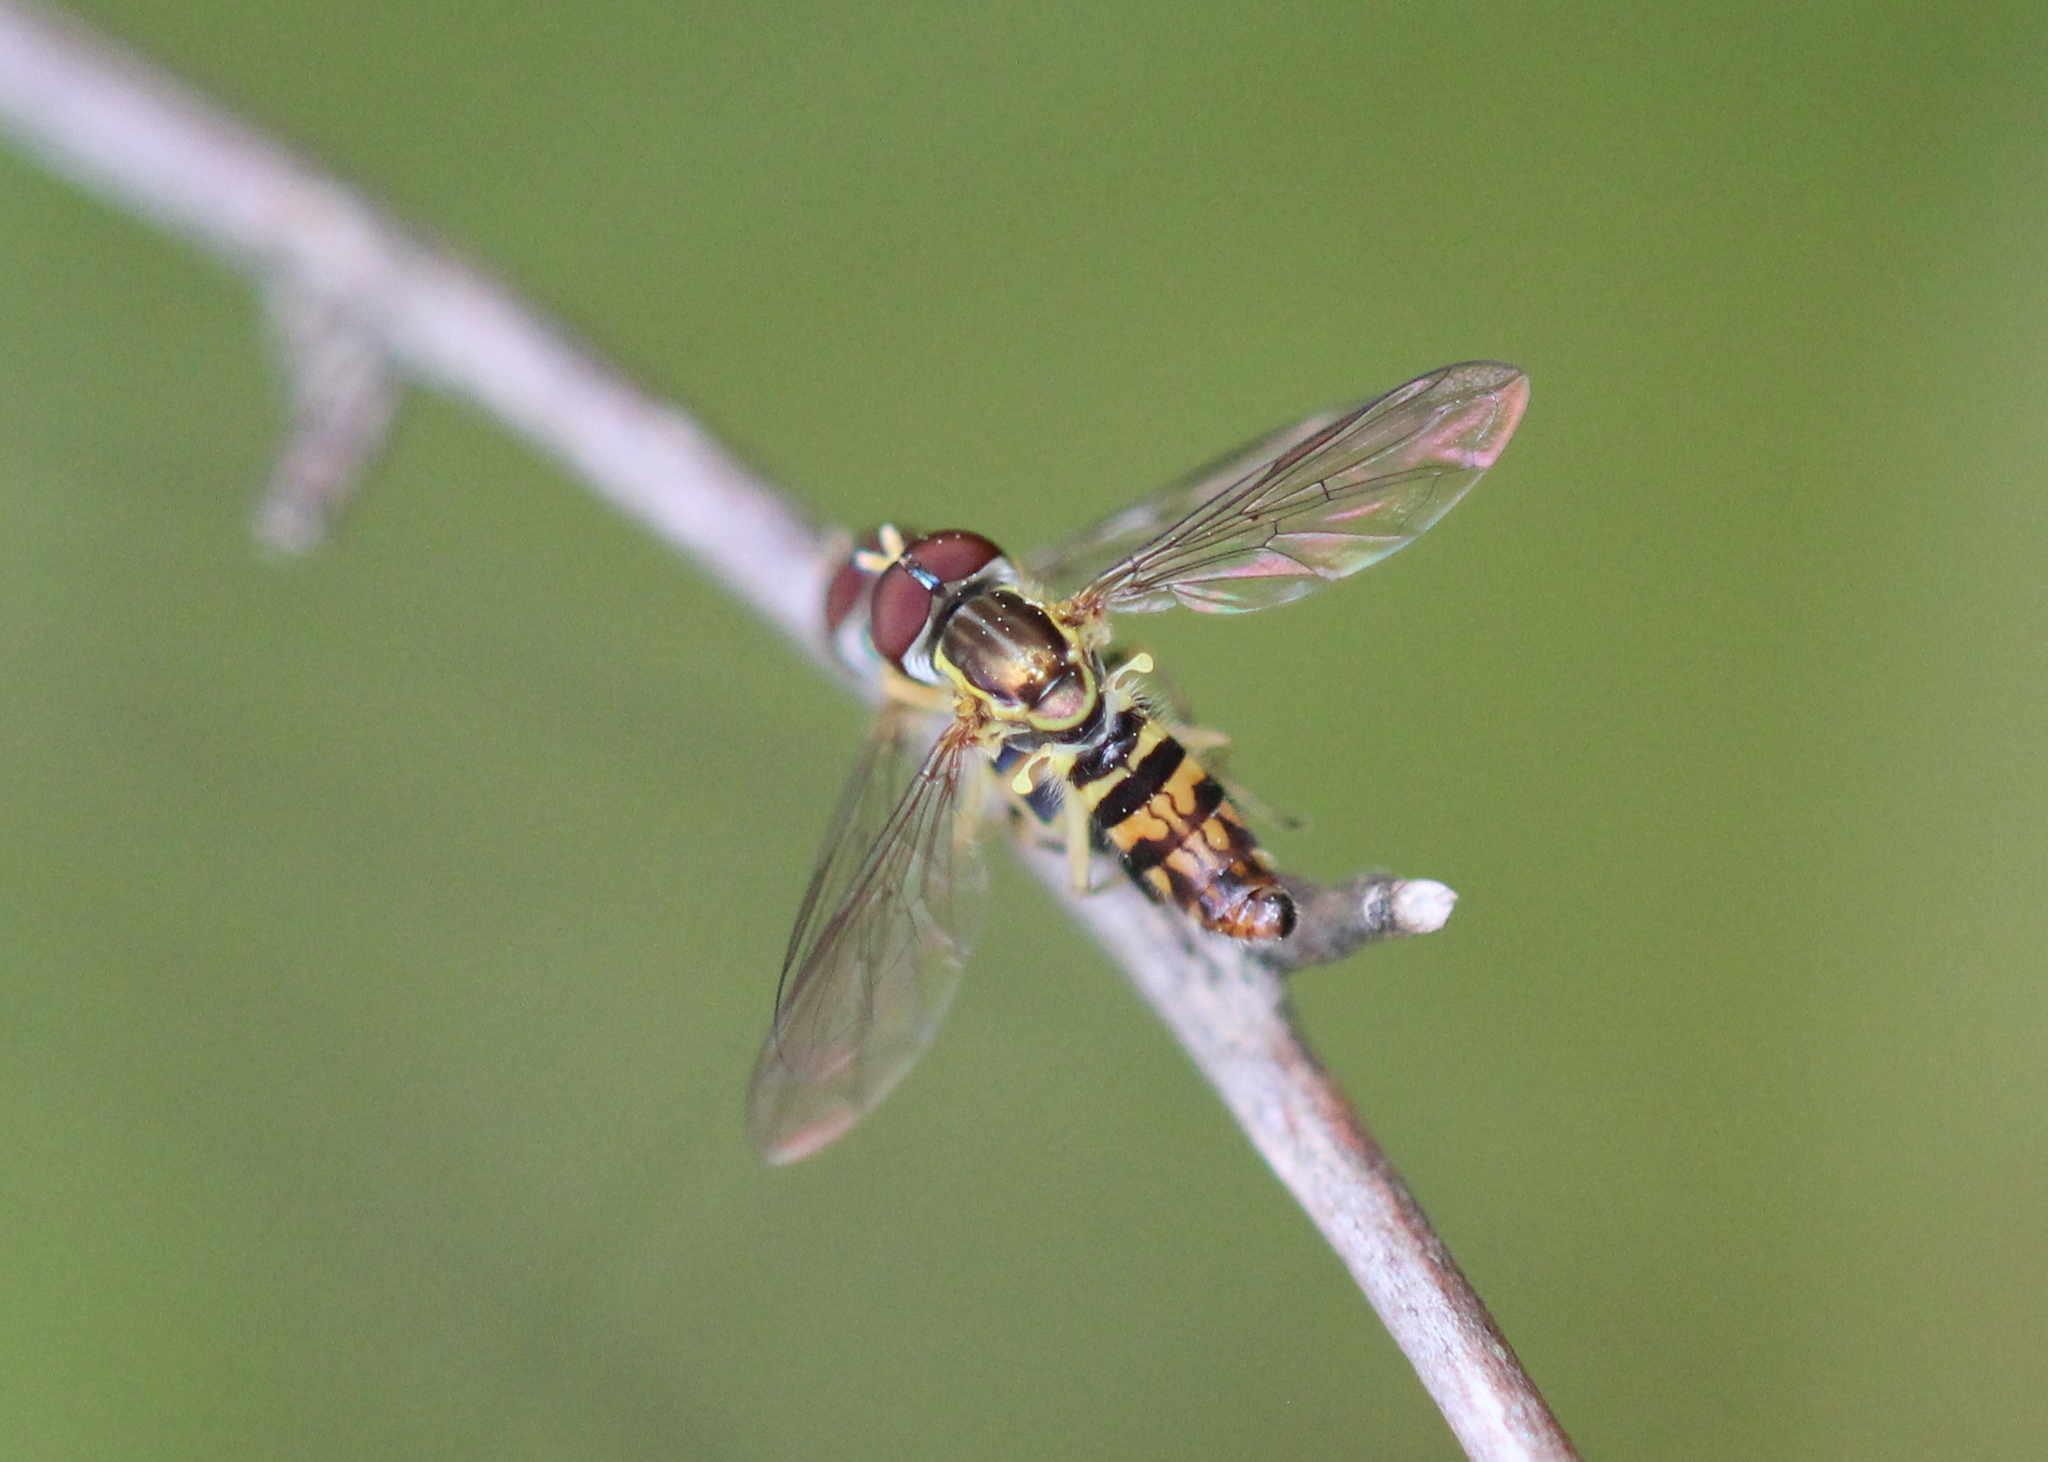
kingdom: Animalia
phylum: Arthropoda
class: Insecta
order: Diptera
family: Syrphidae
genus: Toxomerus
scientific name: Toxomerus geminatus
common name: Eastern calligrapher
